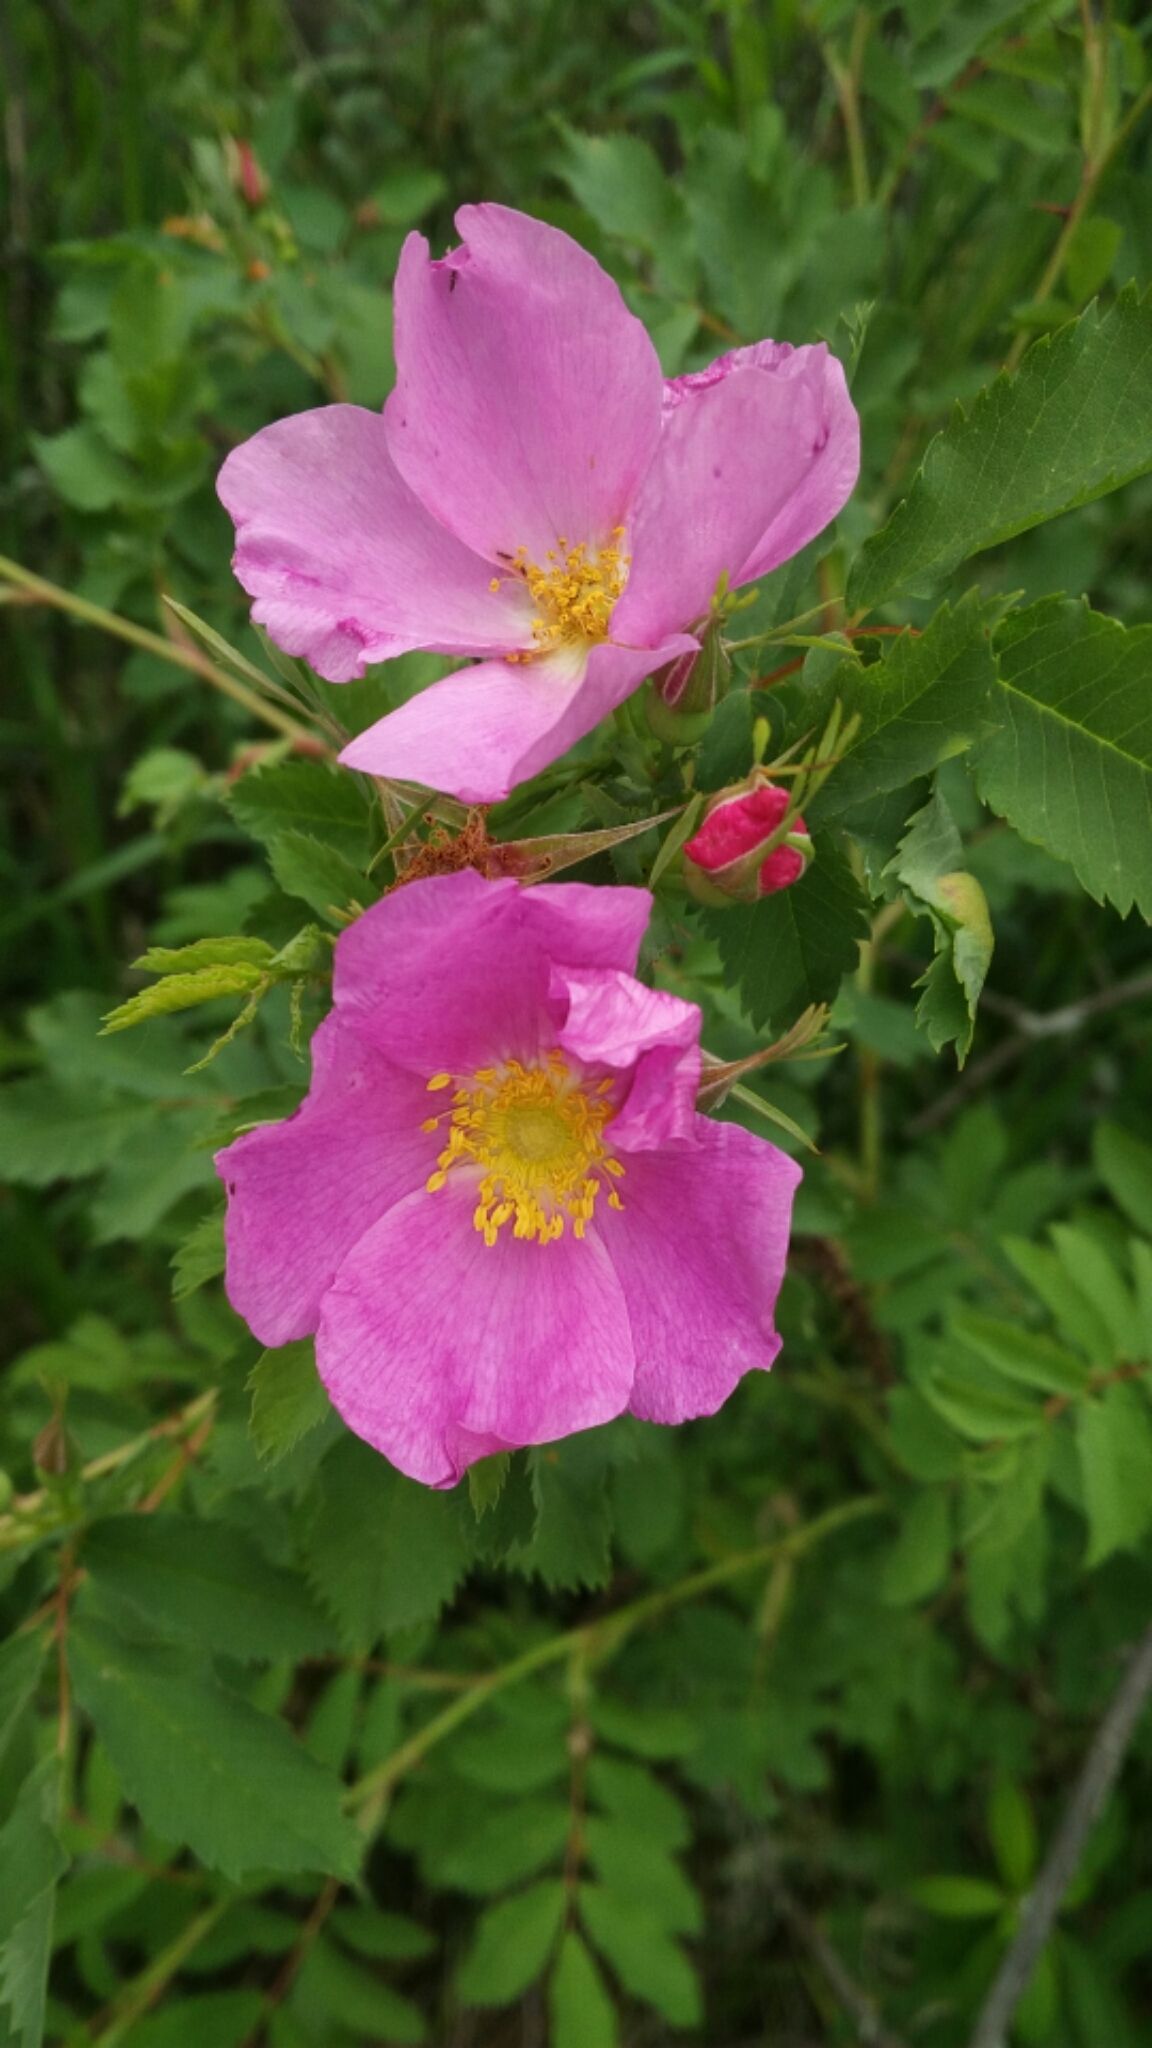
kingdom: Plantae
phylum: Tracheophyta
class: Magnoliopsida
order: Rosales
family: Rosaceae
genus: Rosa
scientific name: Rosa acicularis
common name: Prickly rose
